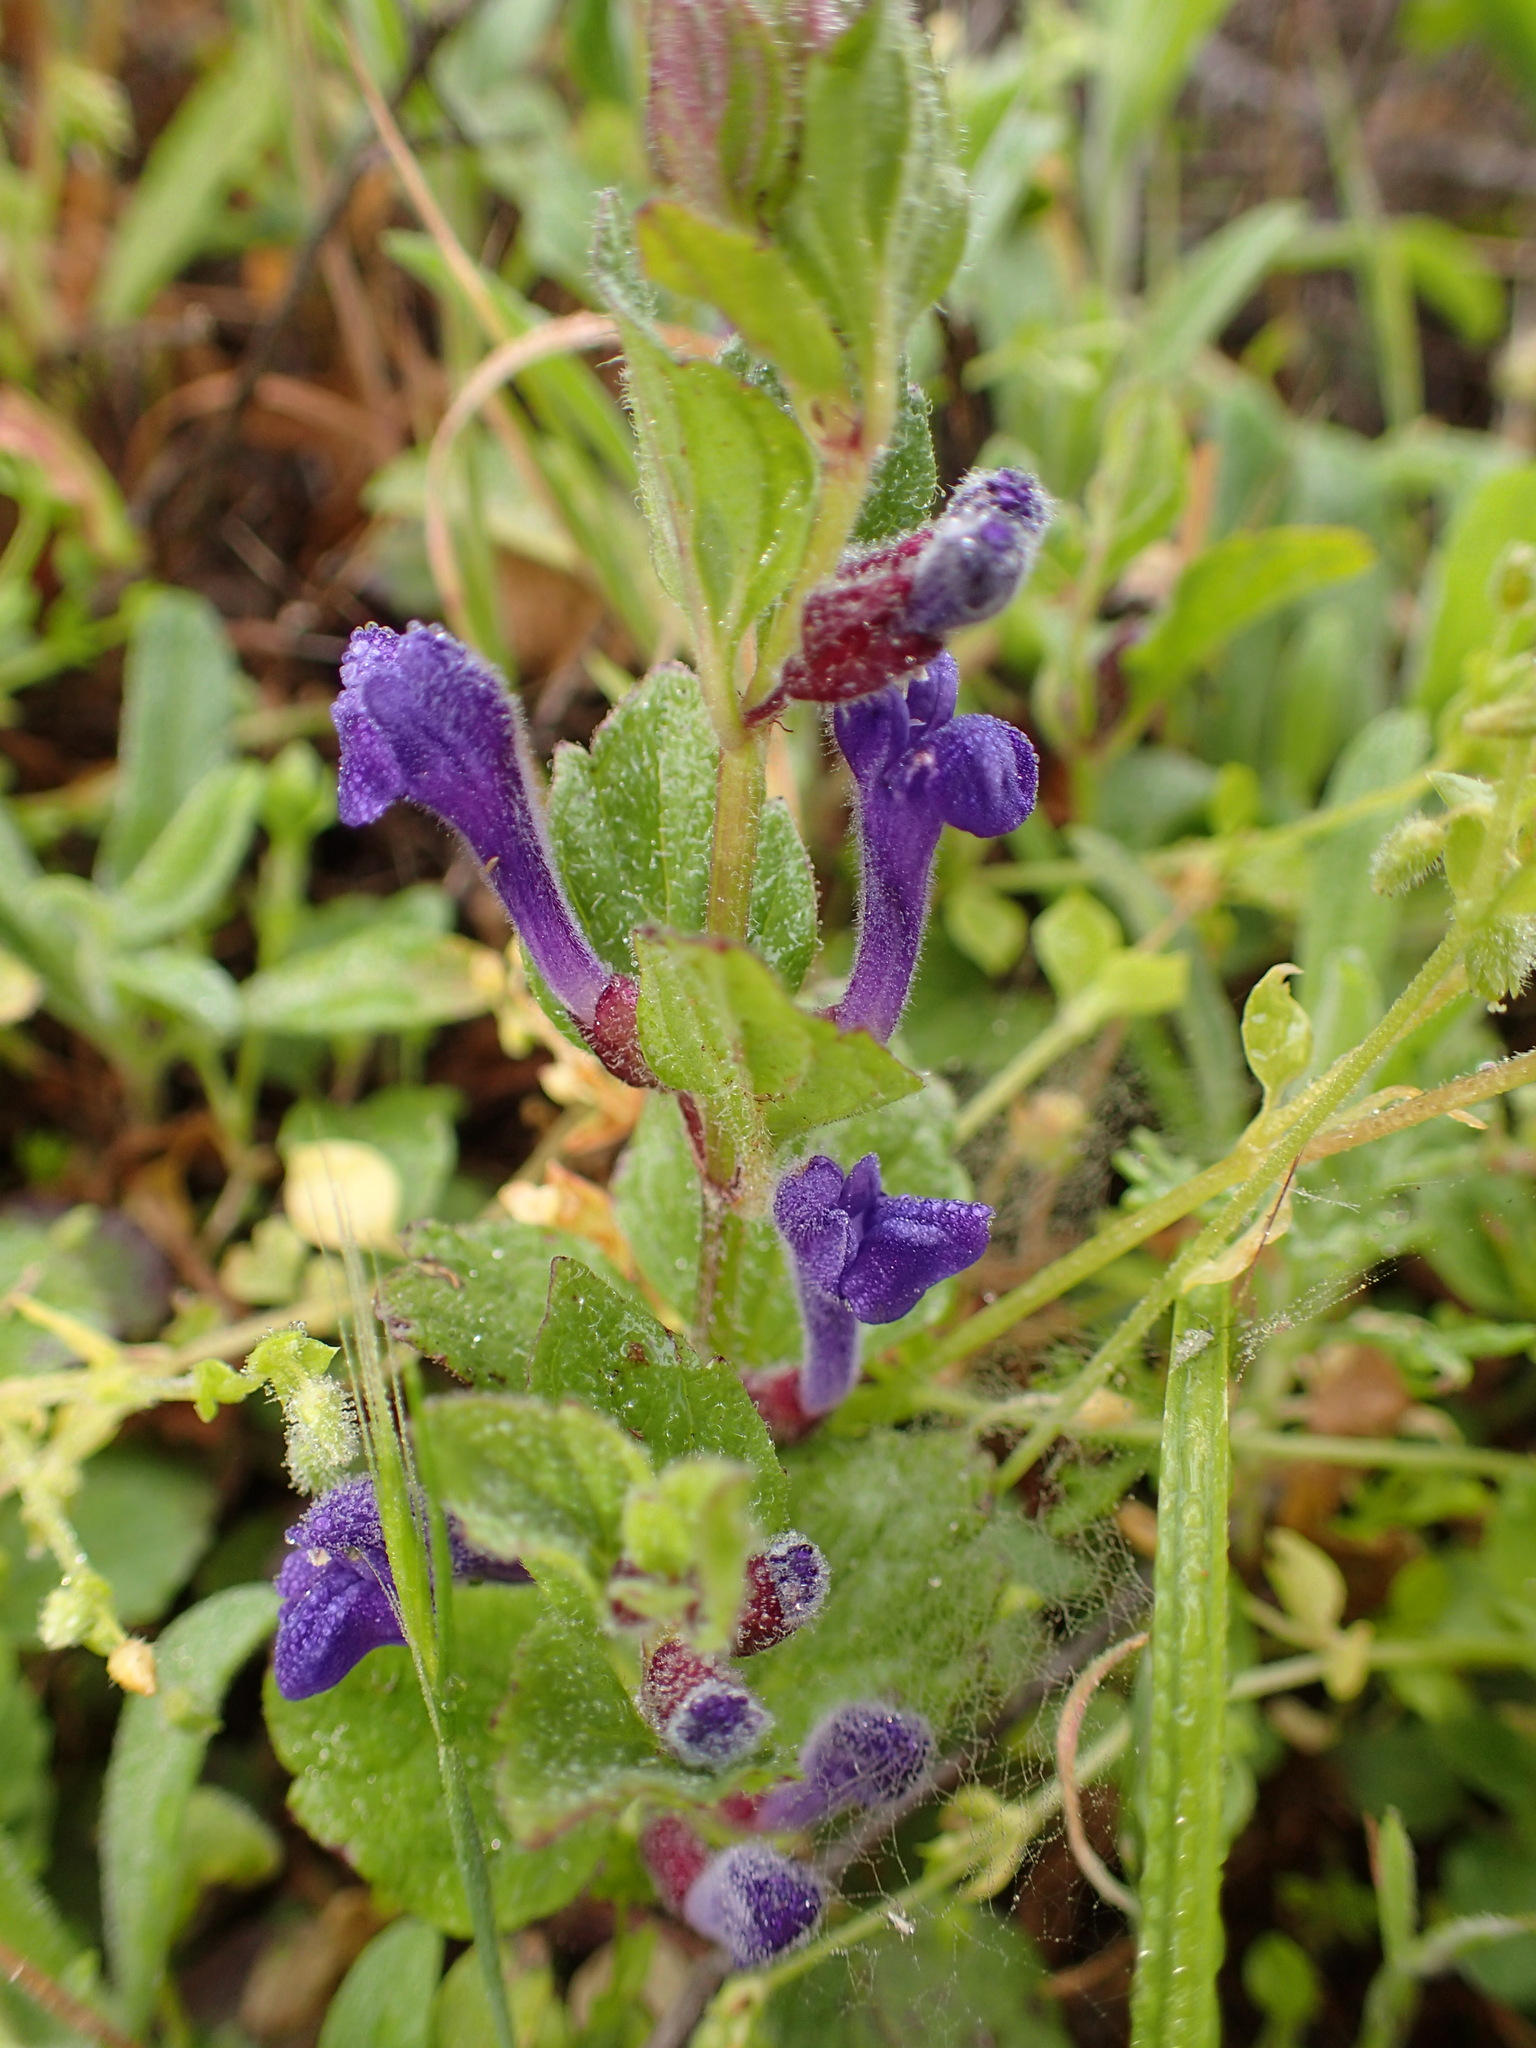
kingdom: Plantae
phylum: Tracheophyta
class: Magnoliopsida
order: Lamiales
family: Lamiaceae
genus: Scutellaria
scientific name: Scutellaria tuberosa
